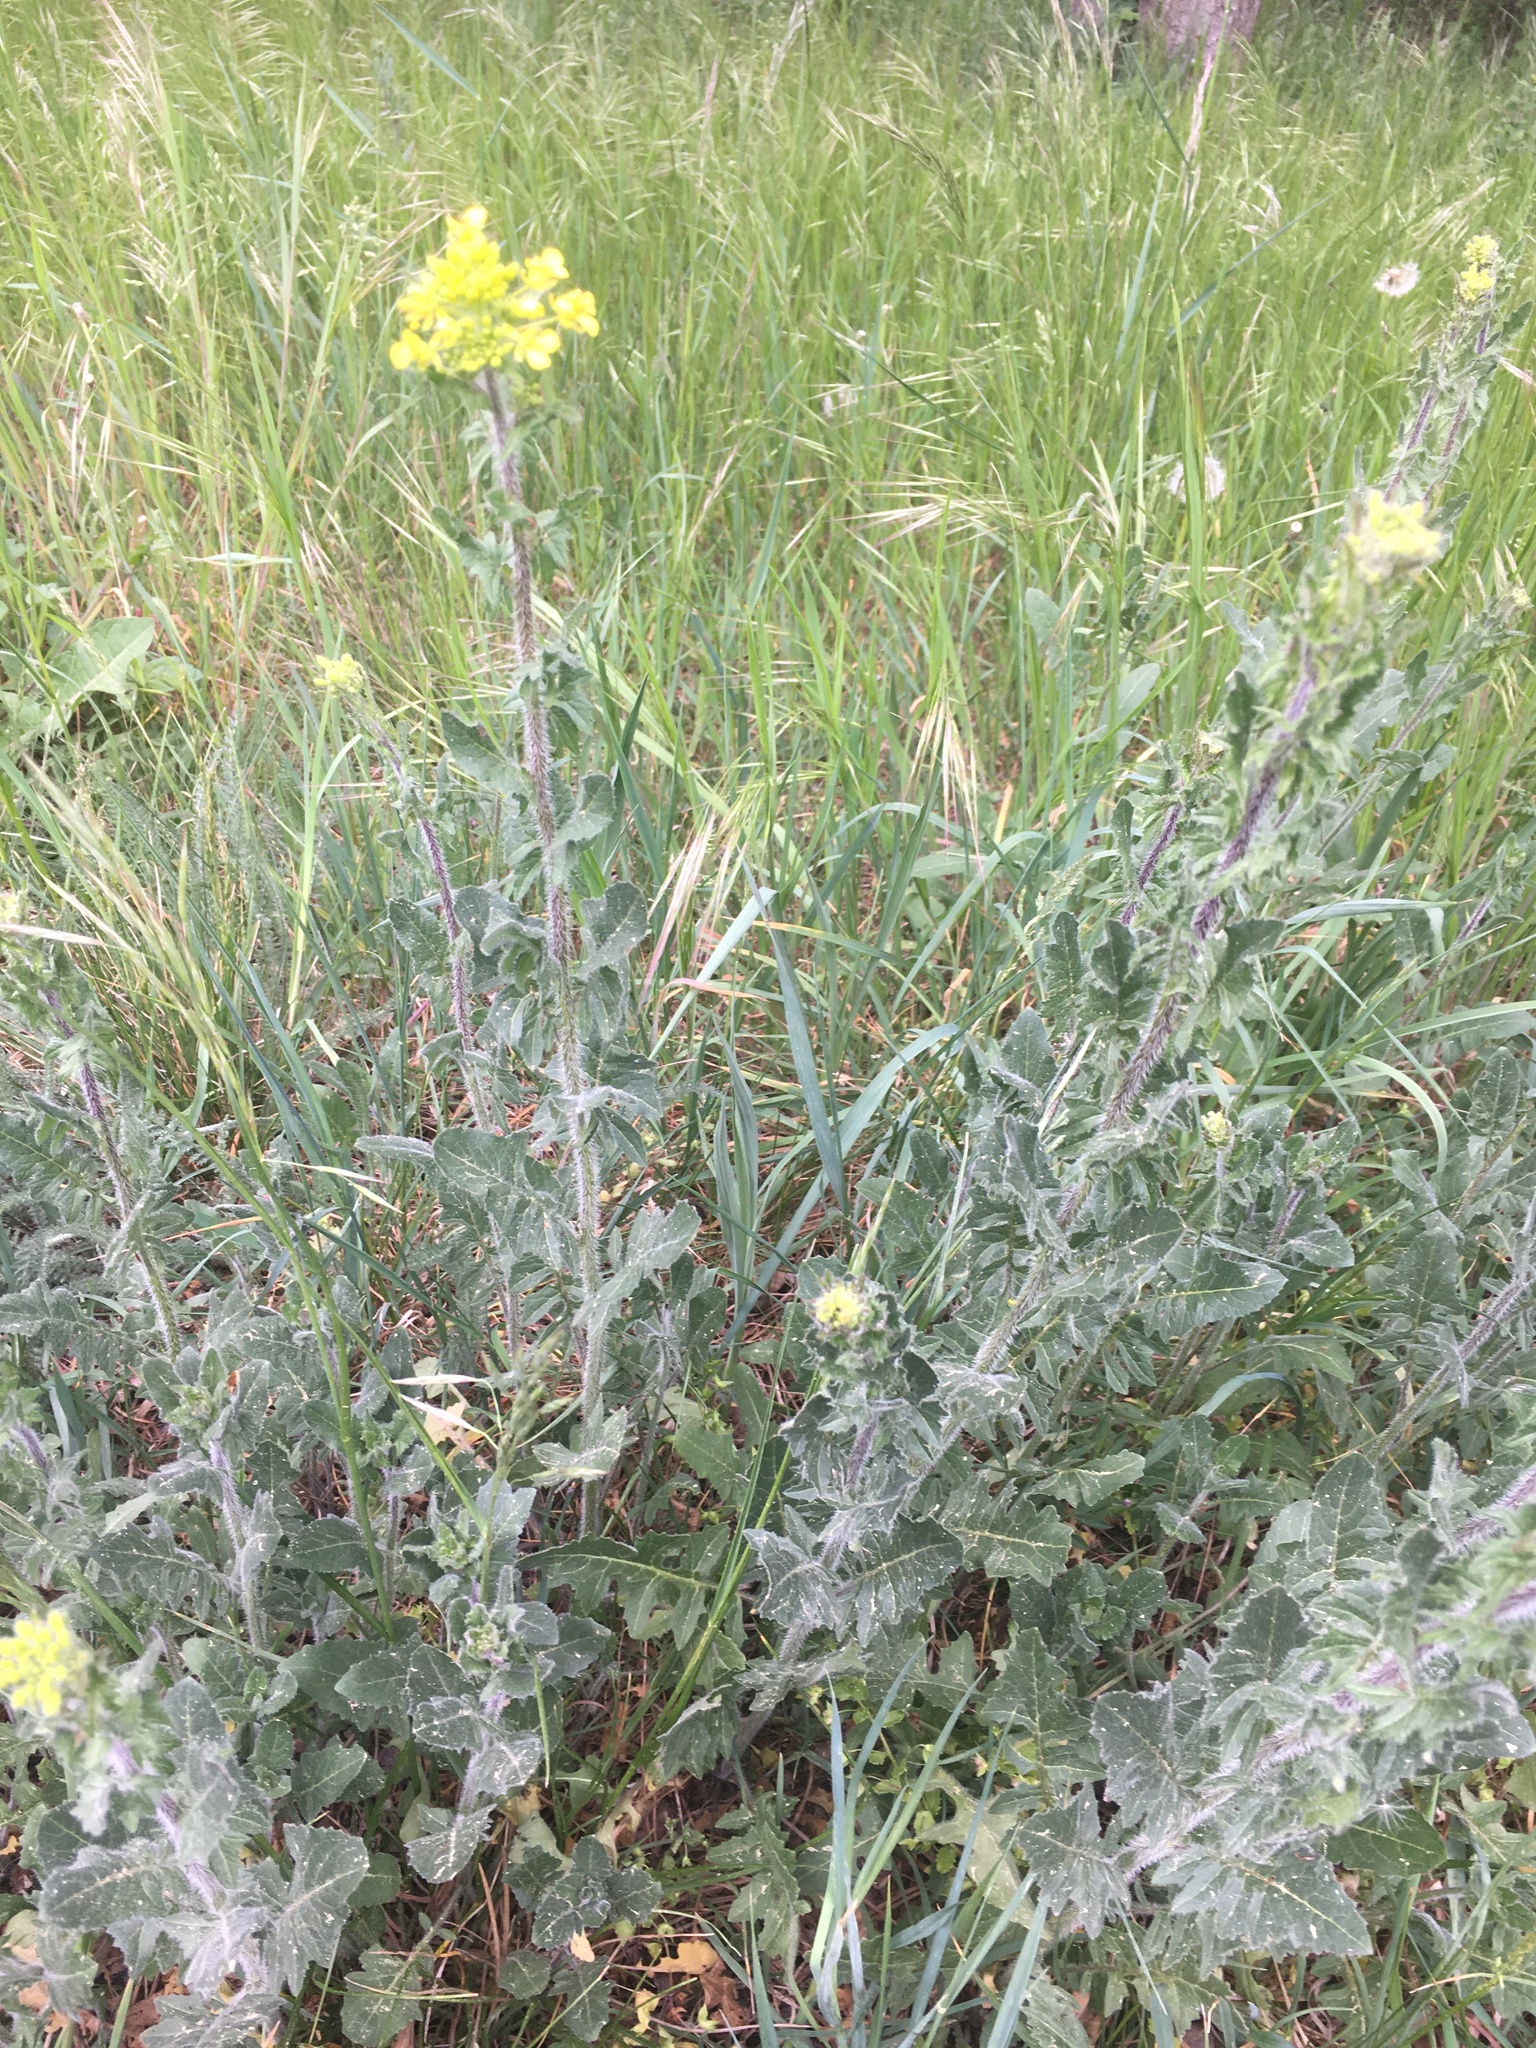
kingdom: Plantae
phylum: Tracheophyta
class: Magnoliopsida
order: Brassicales
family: Brassicaceae
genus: Sisymbrium
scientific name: Sisymbrium loeselii
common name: False london-rocket
